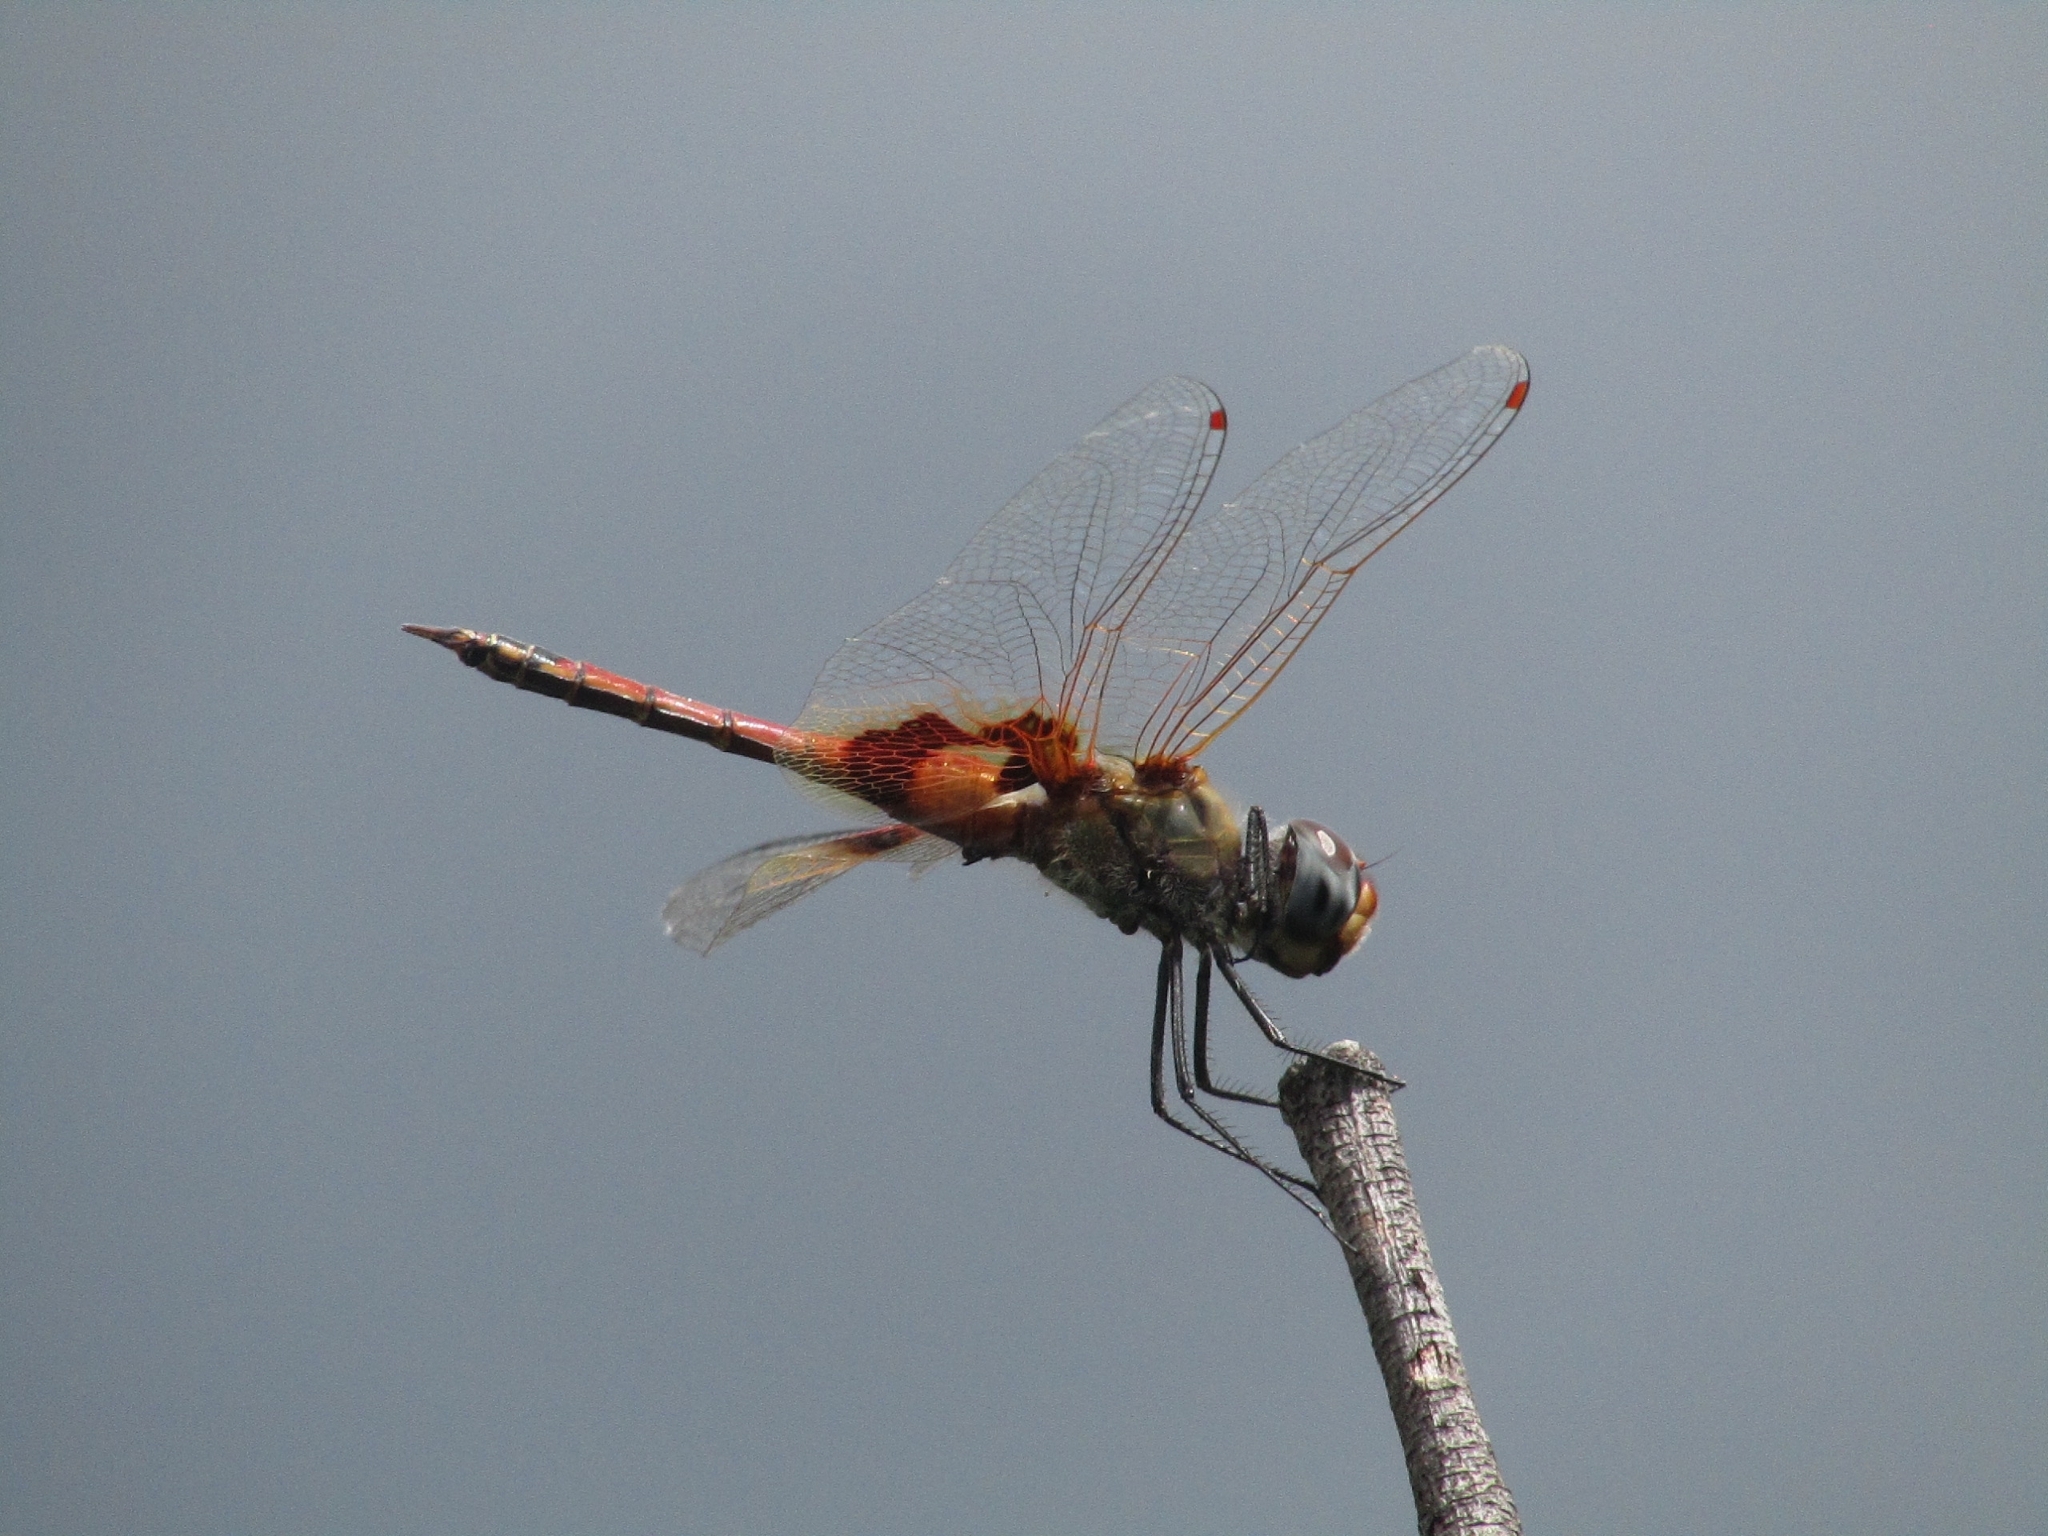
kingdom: Animalia
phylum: Arthropoda
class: Insecta
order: Odonata
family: Libellulidae
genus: Tramea
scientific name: Tramea basilaris
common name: Keyhole glider
